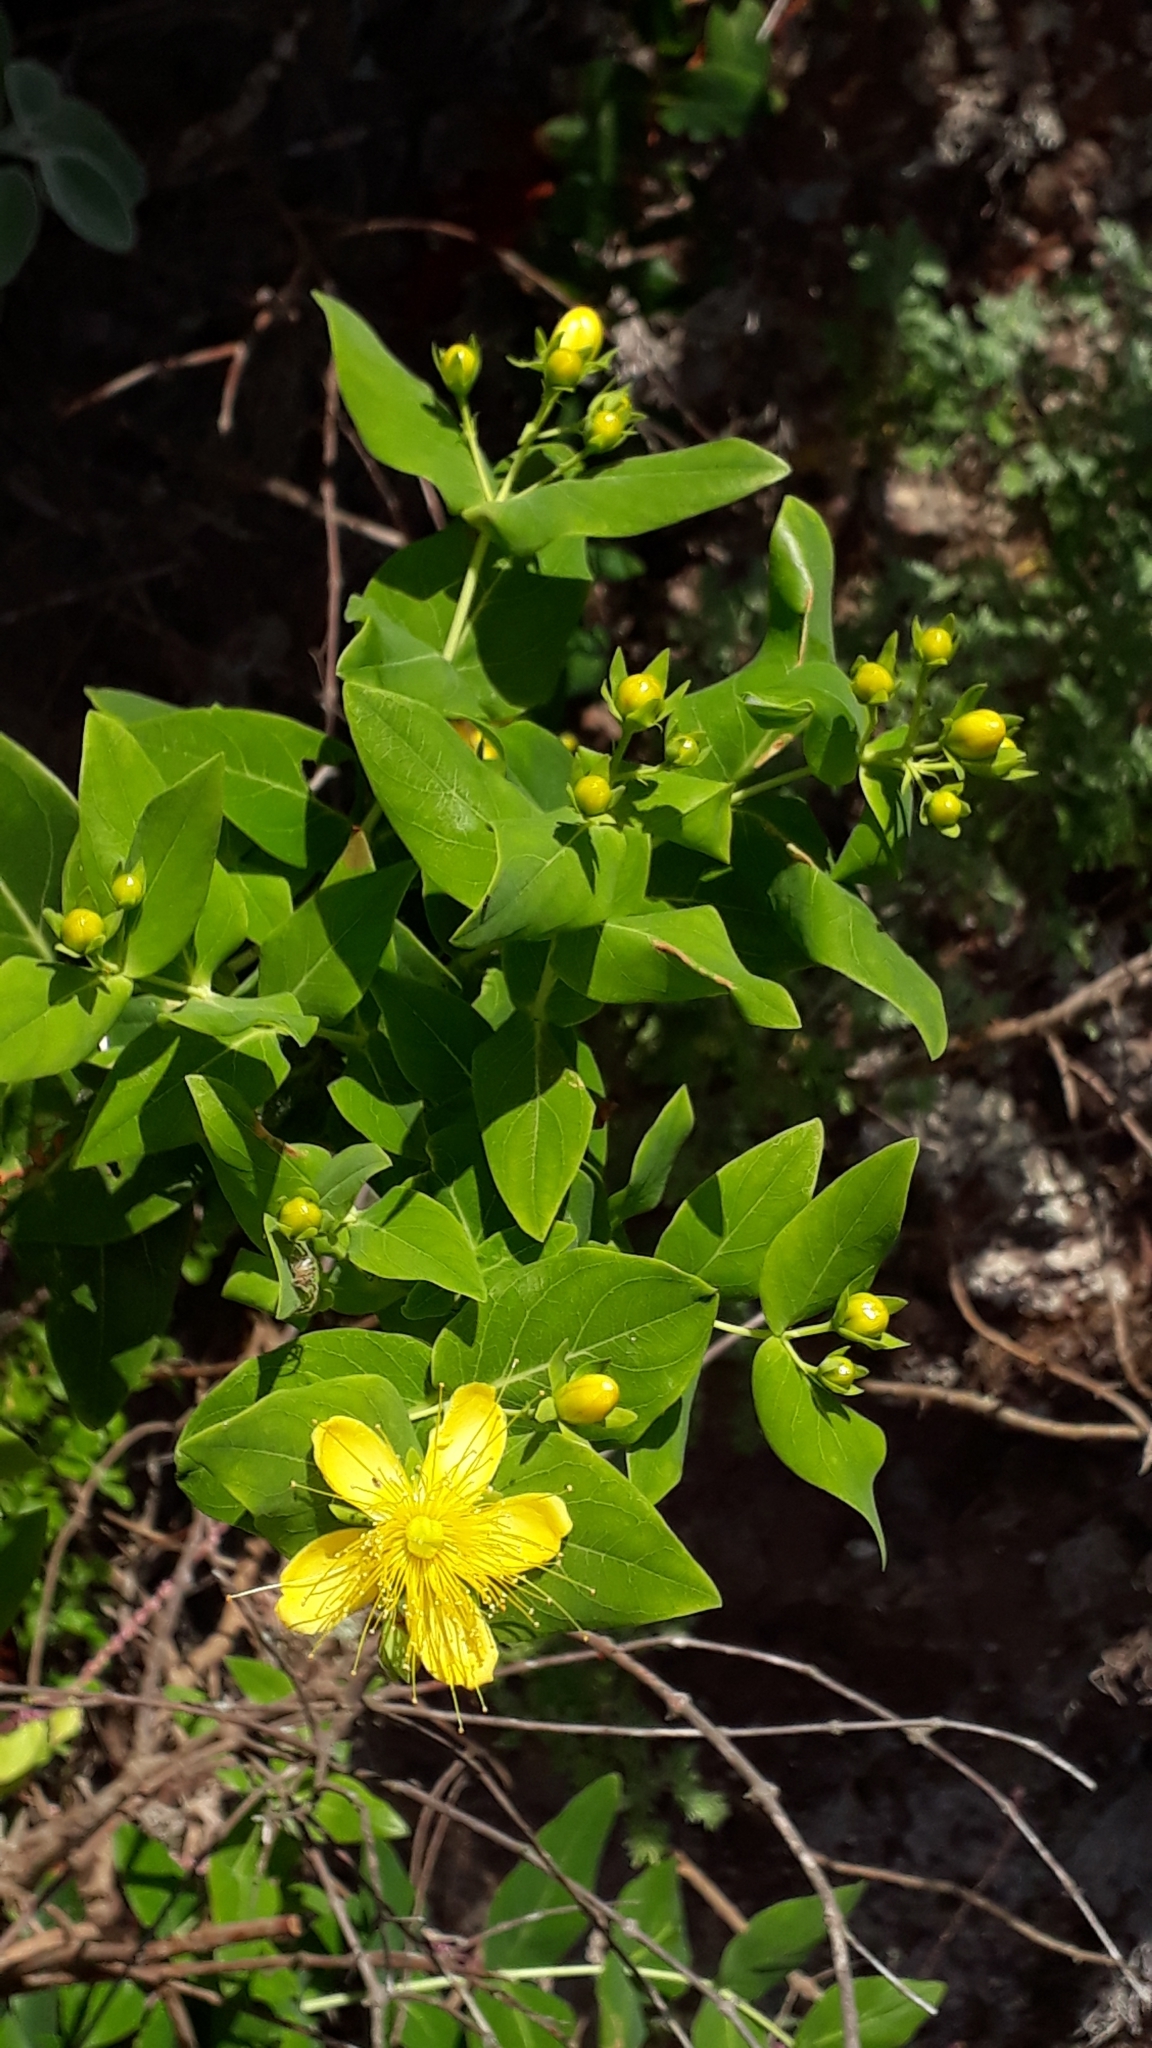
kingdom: Plantae
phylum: Tracheophyta
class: Magnoliopsida
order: Malpighiales
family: Hypericaceae
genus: Hypericum
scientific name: Hypericum grandifolium
